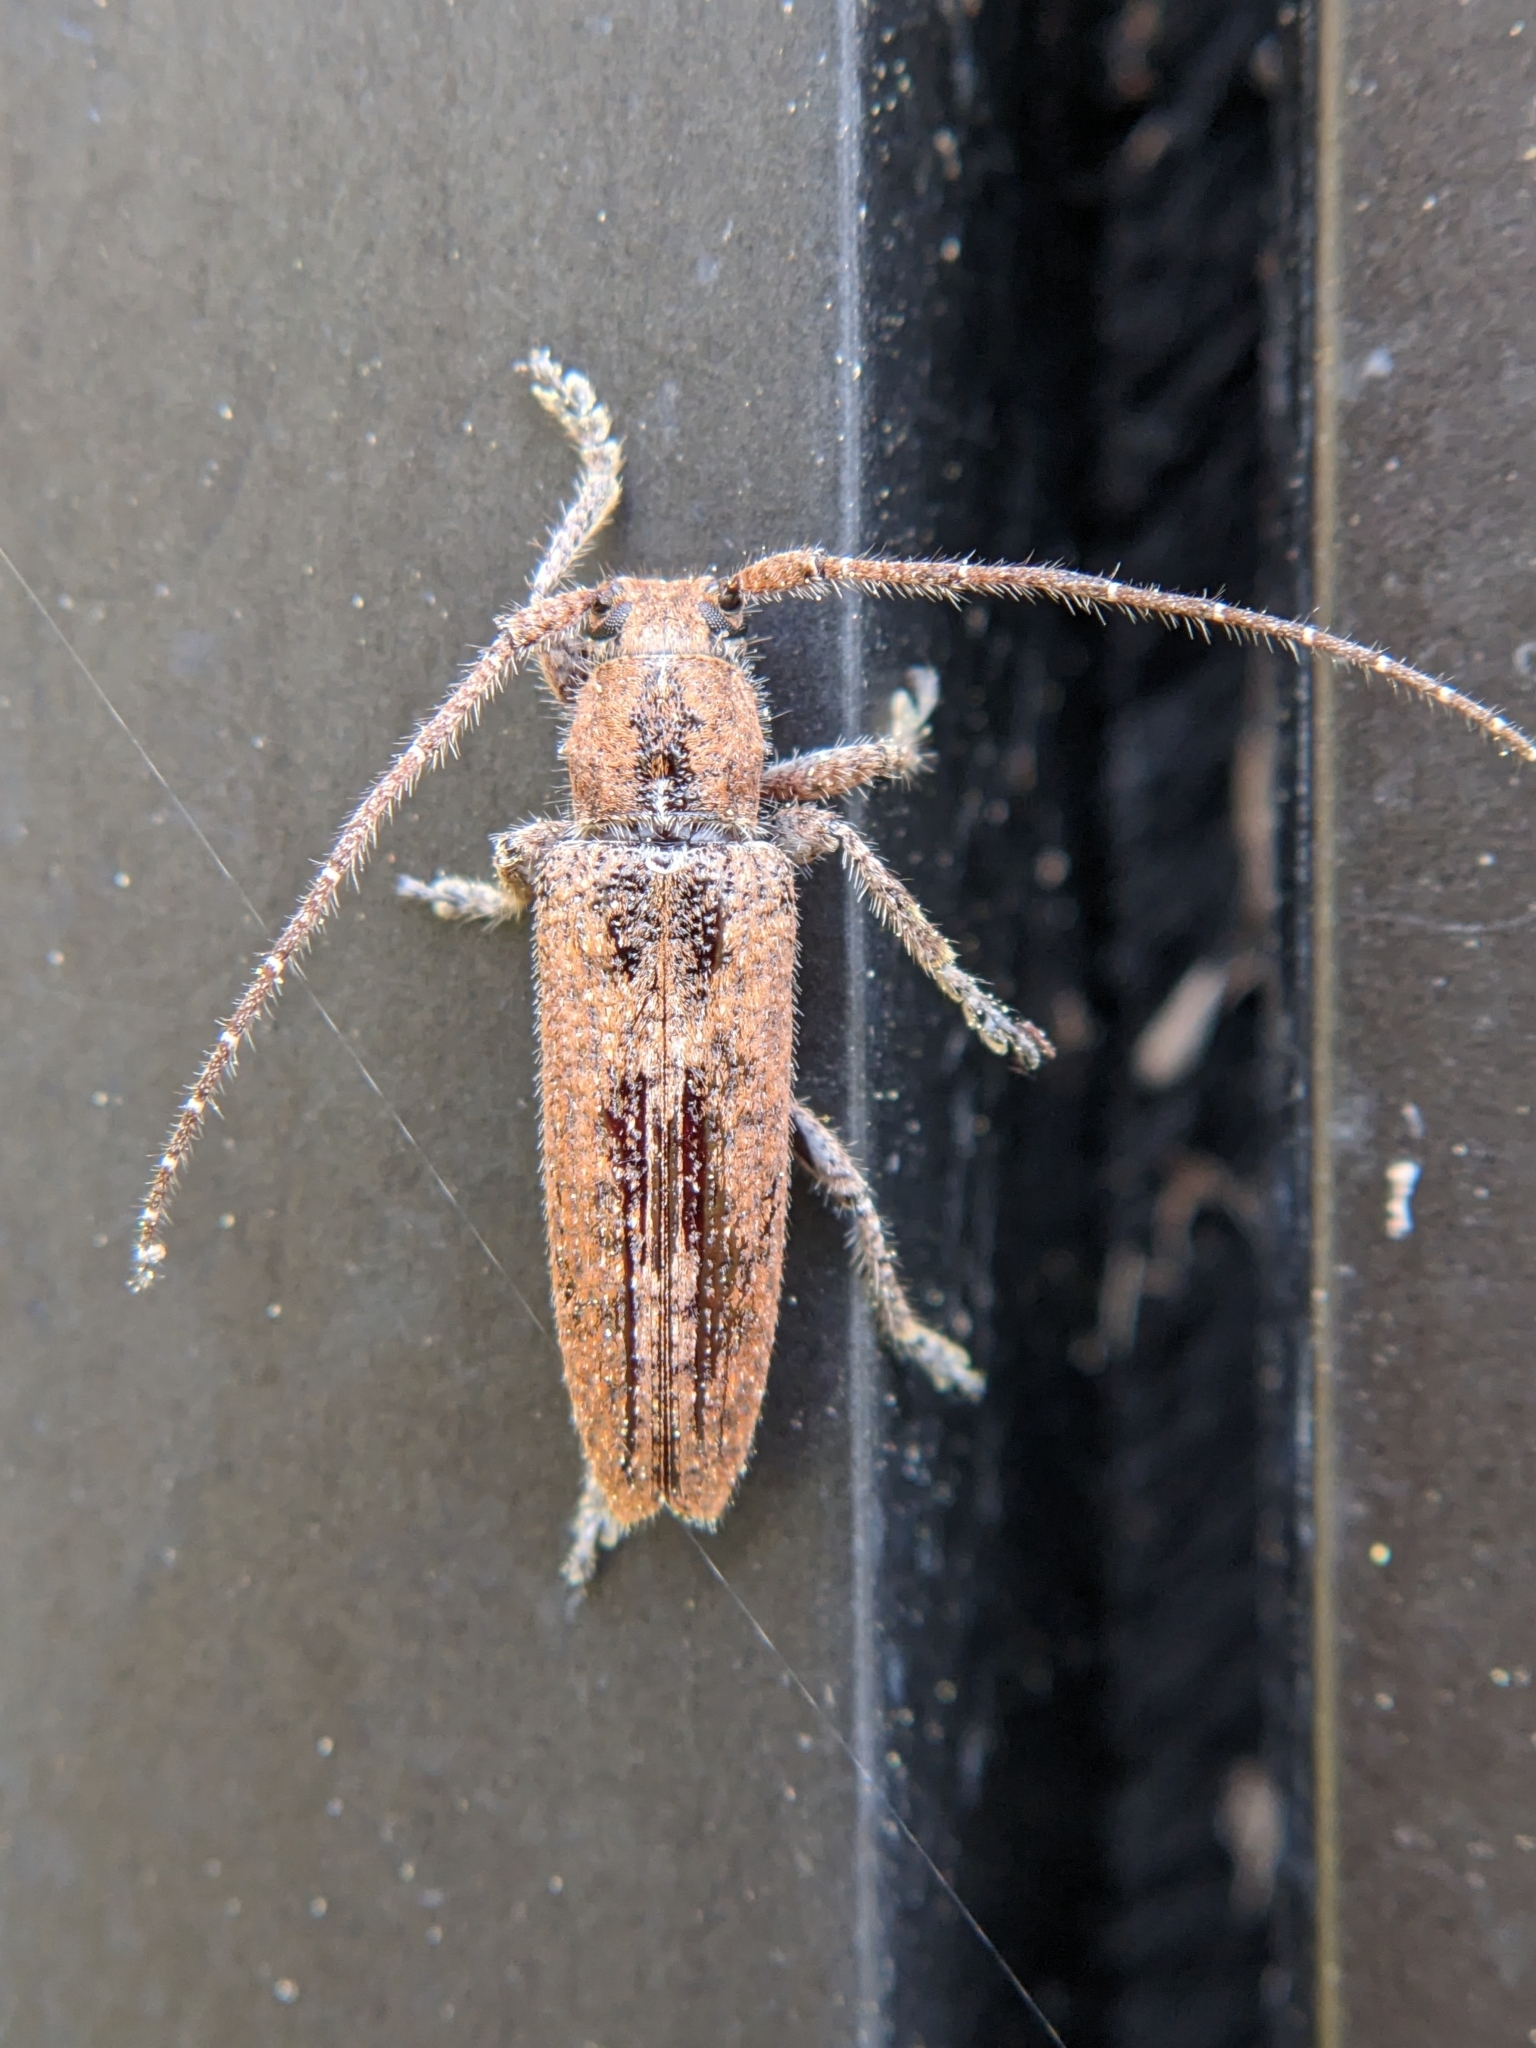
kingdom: Animalia
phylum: Arthropoda
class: Insecta
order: Coleoptera
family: Cerambycidae
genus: Ataxia
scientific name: Ataxia crypta
